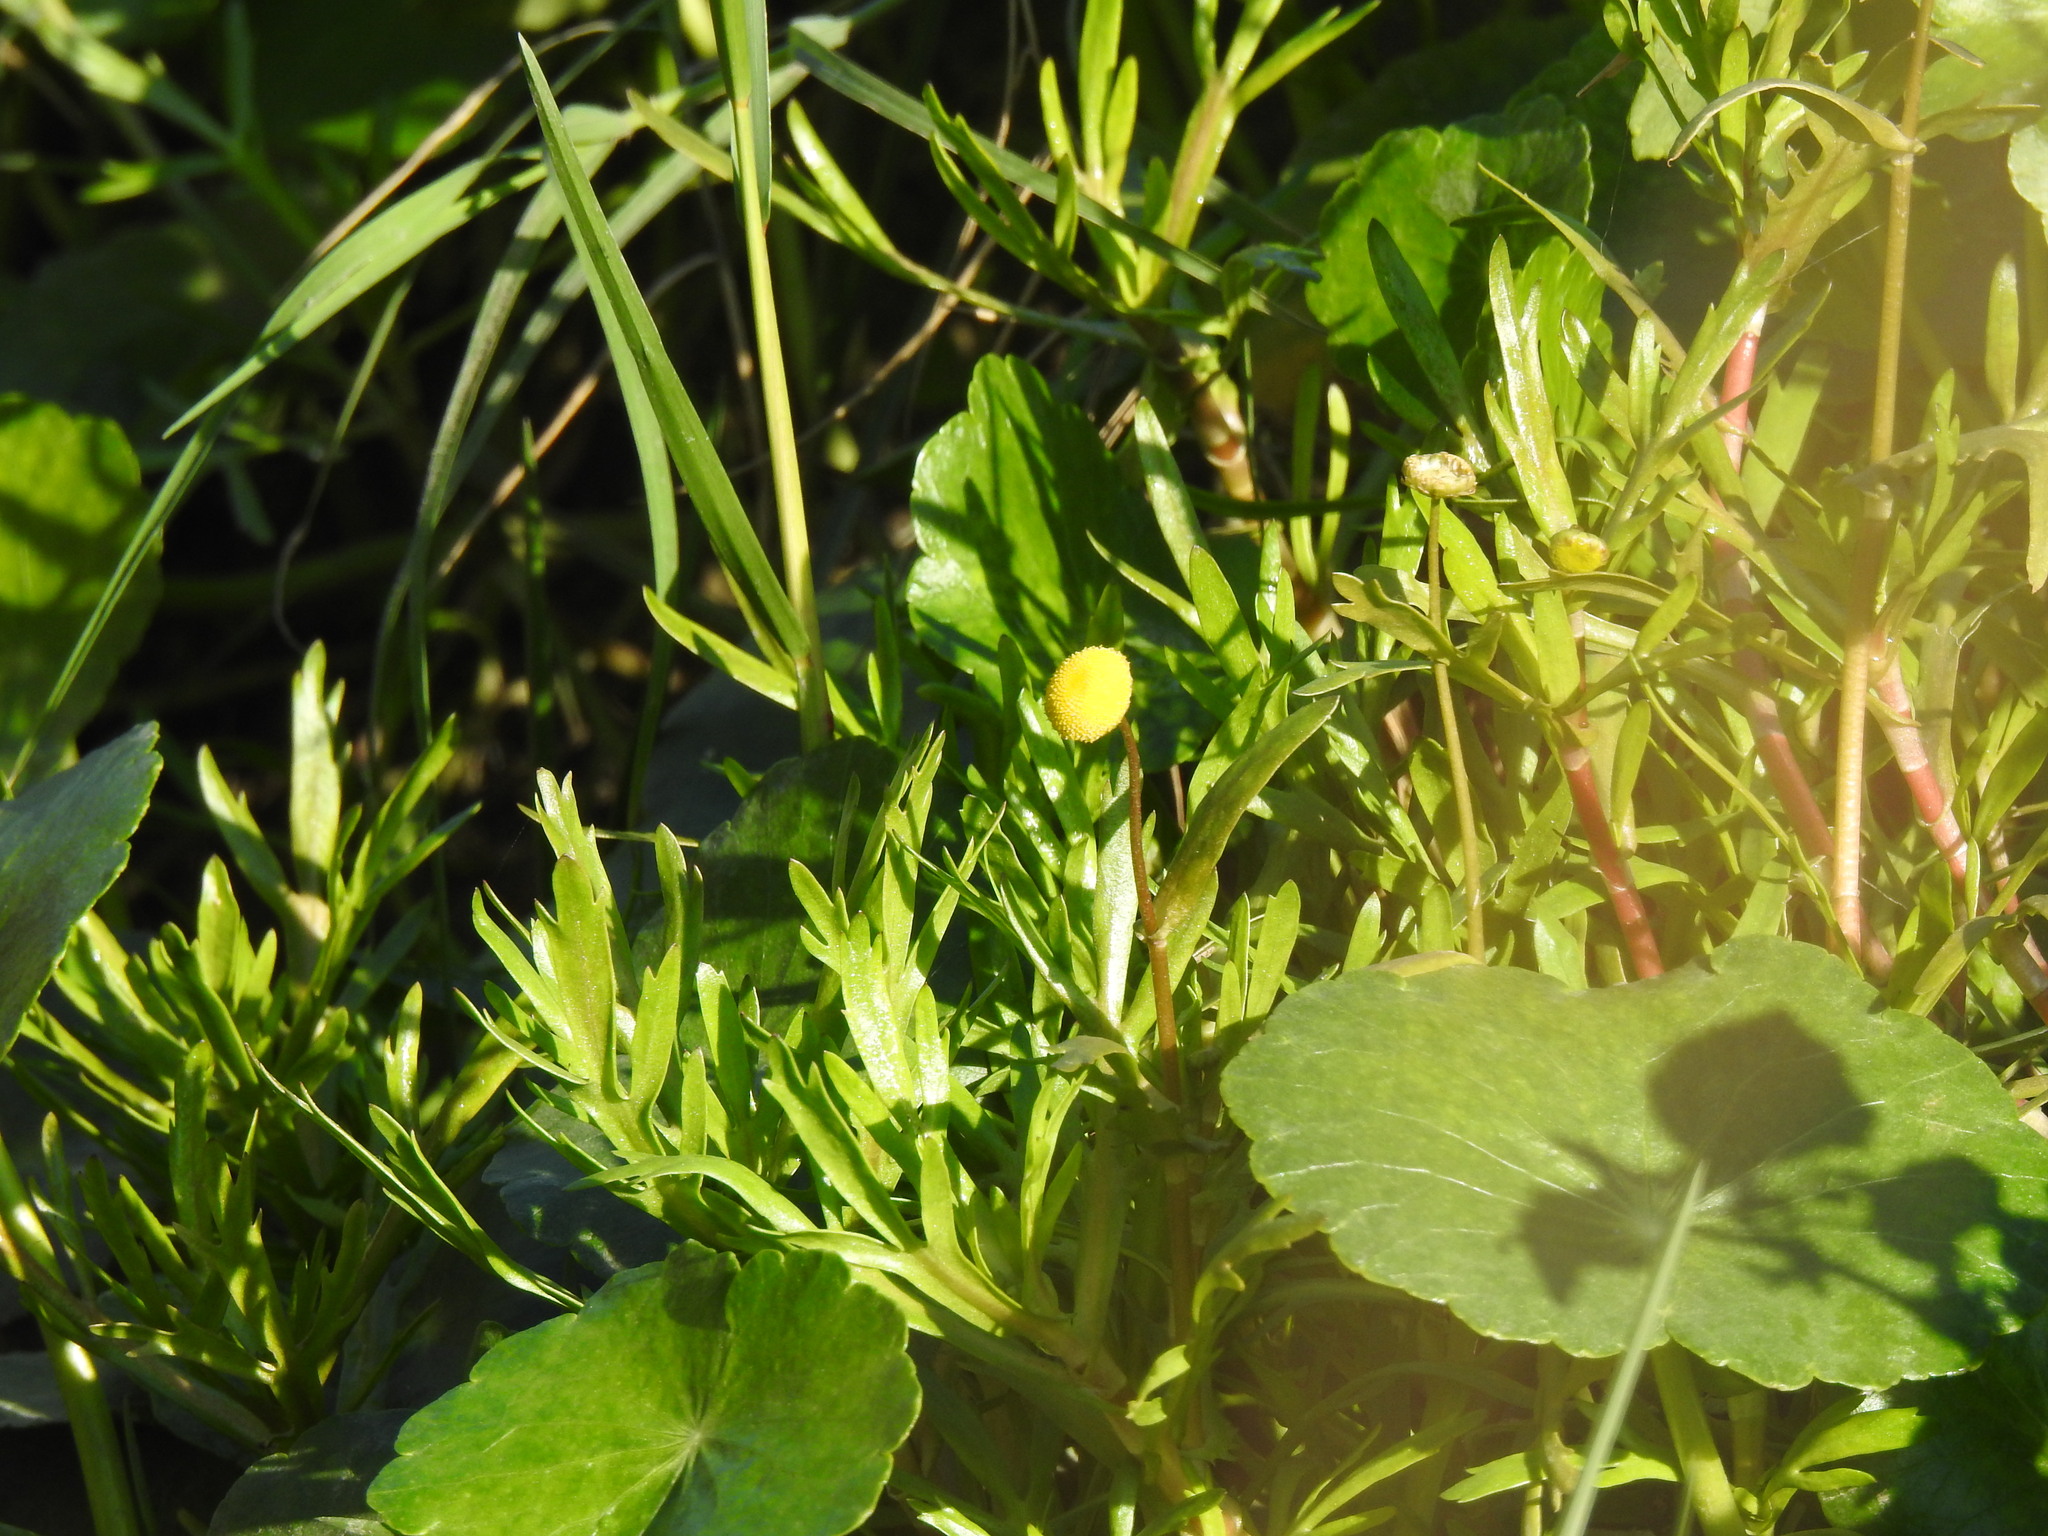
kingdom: Plantae
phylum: Tracheophyta
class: Magnoliopsida
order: Asterales
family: Asteraceae
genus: Cotula
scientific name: Cotula coronopifolia
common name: Buttonweed
